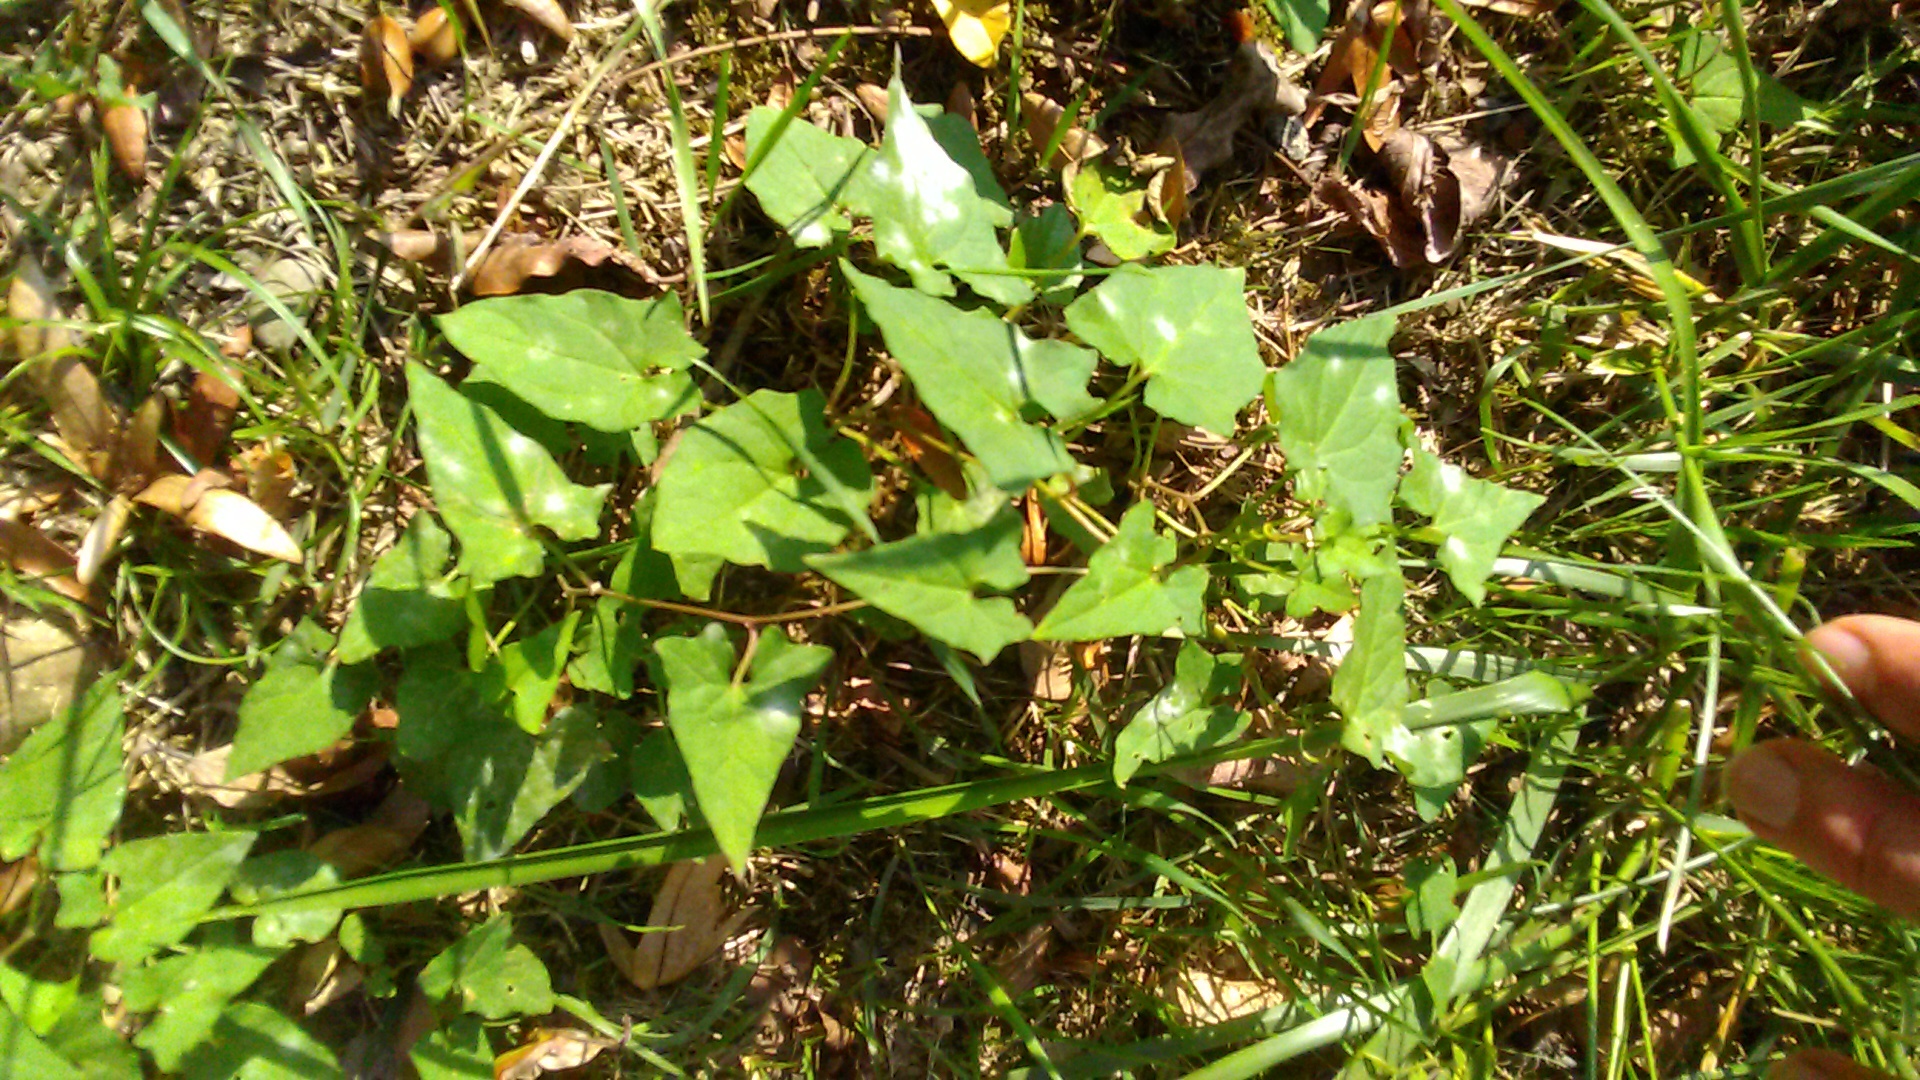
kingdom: Plantae
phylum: Tracheophyta
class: Magnoliopsida
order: Solanales
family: Convolvulaceae
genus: Calystegia
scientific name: Calystegia
